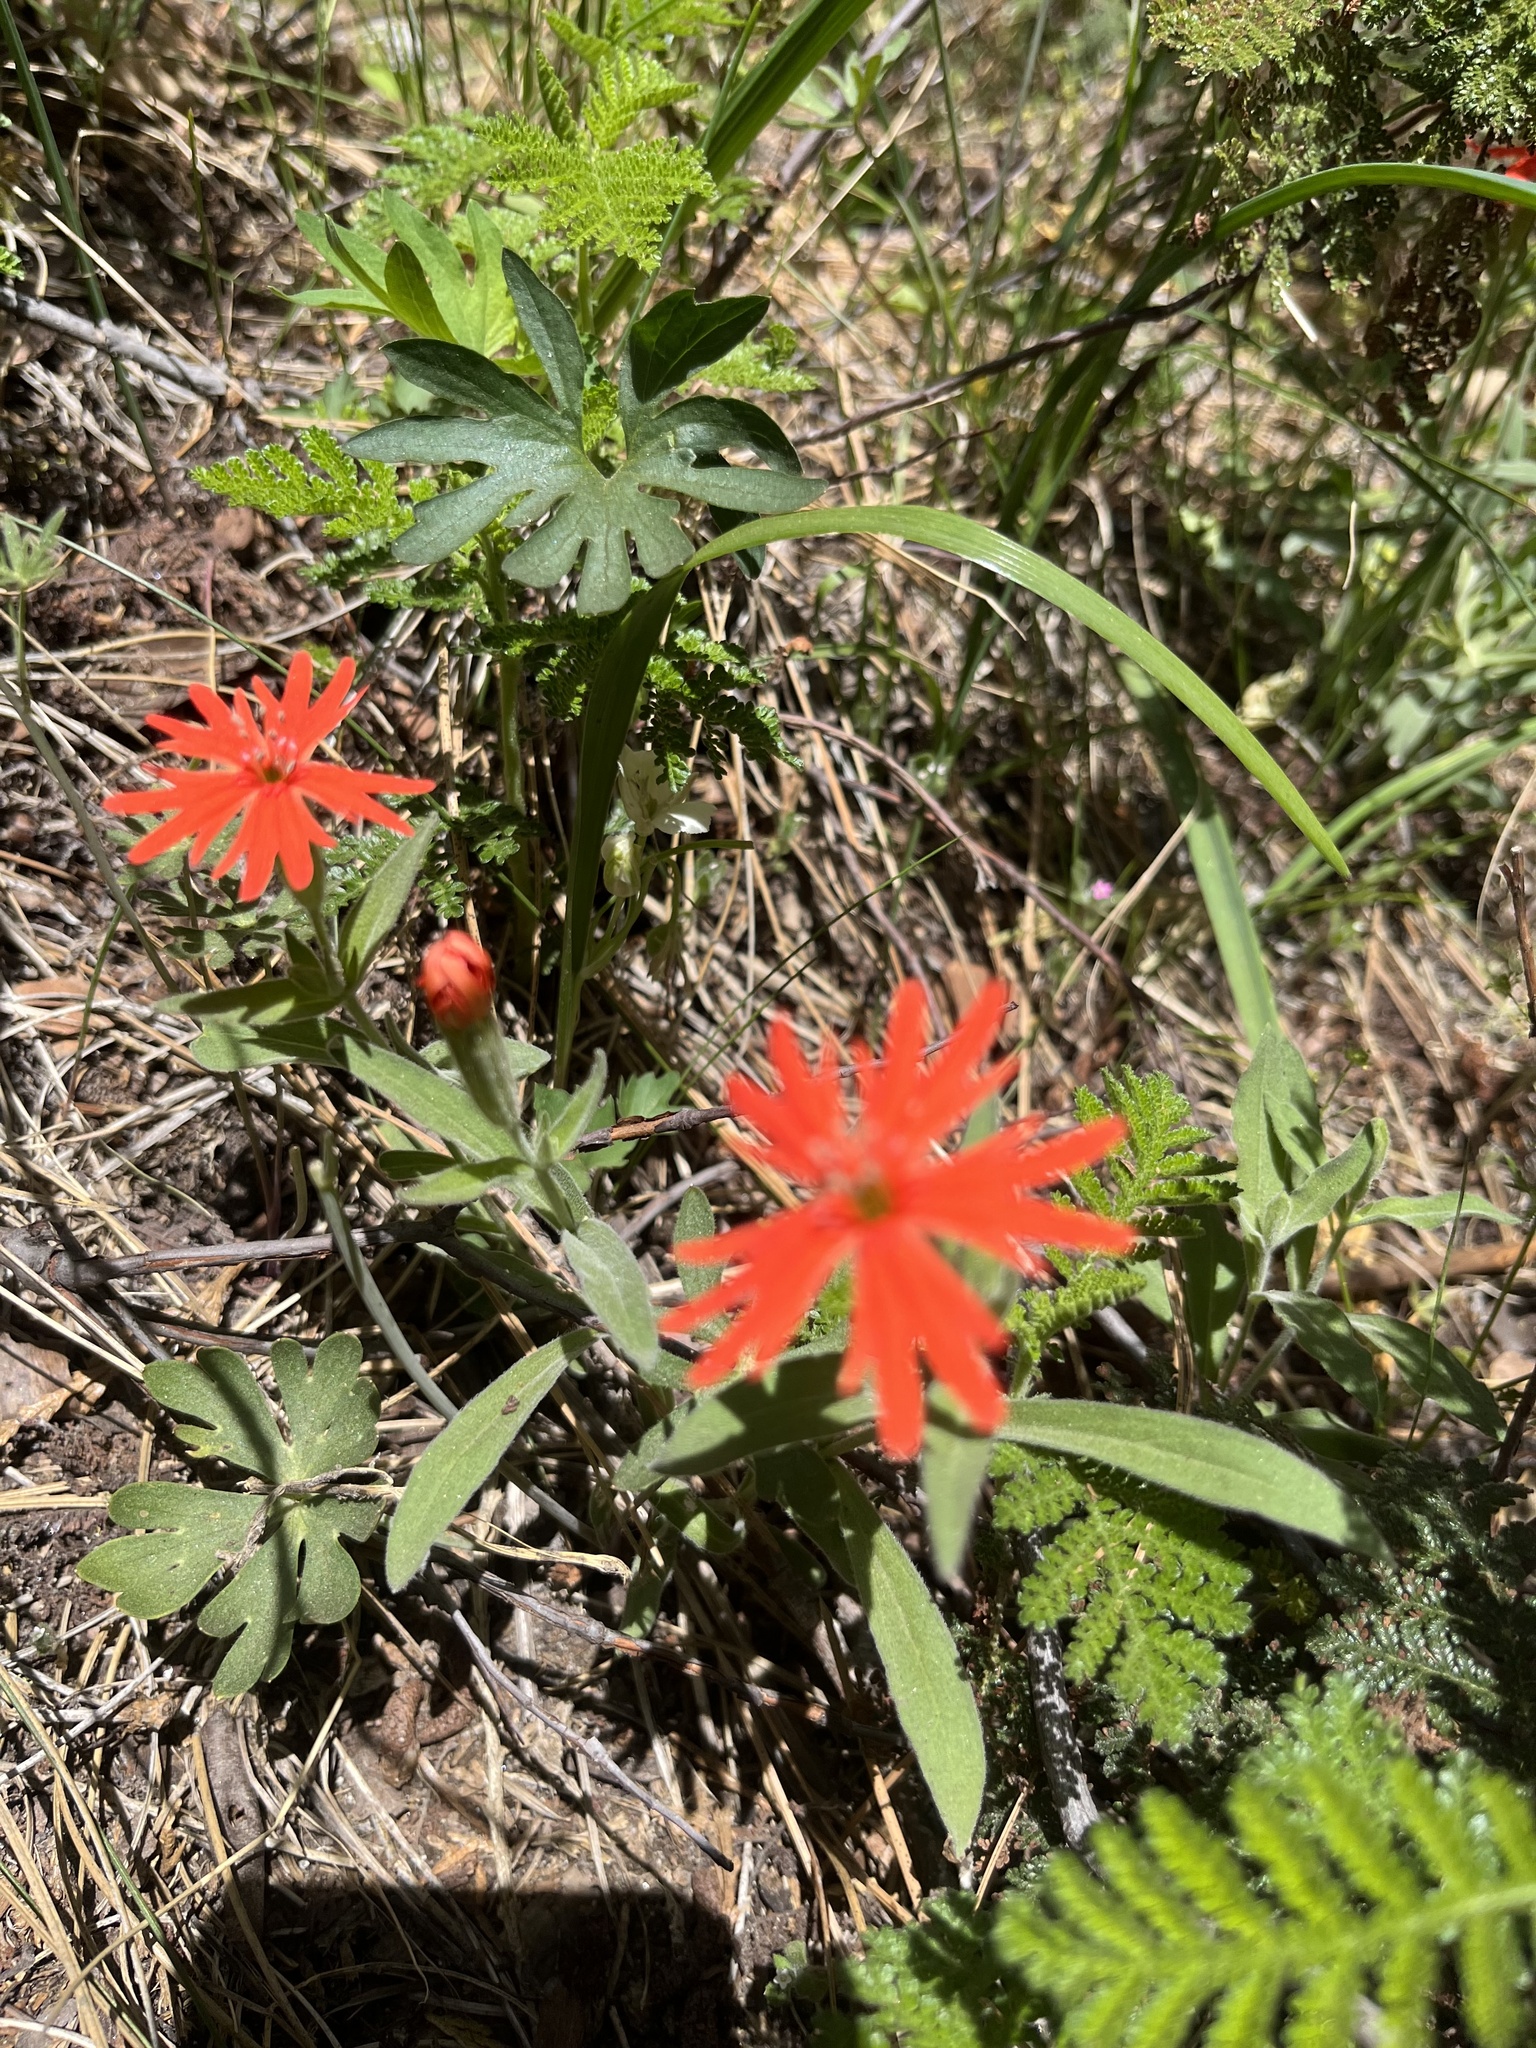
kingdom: Plantae
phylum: Tracheophyta
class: Magnoliopsida
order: Caryophyllales
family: Caryophyllaceae
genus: Silene
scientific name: Silene laciniata
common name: Indian-pink
